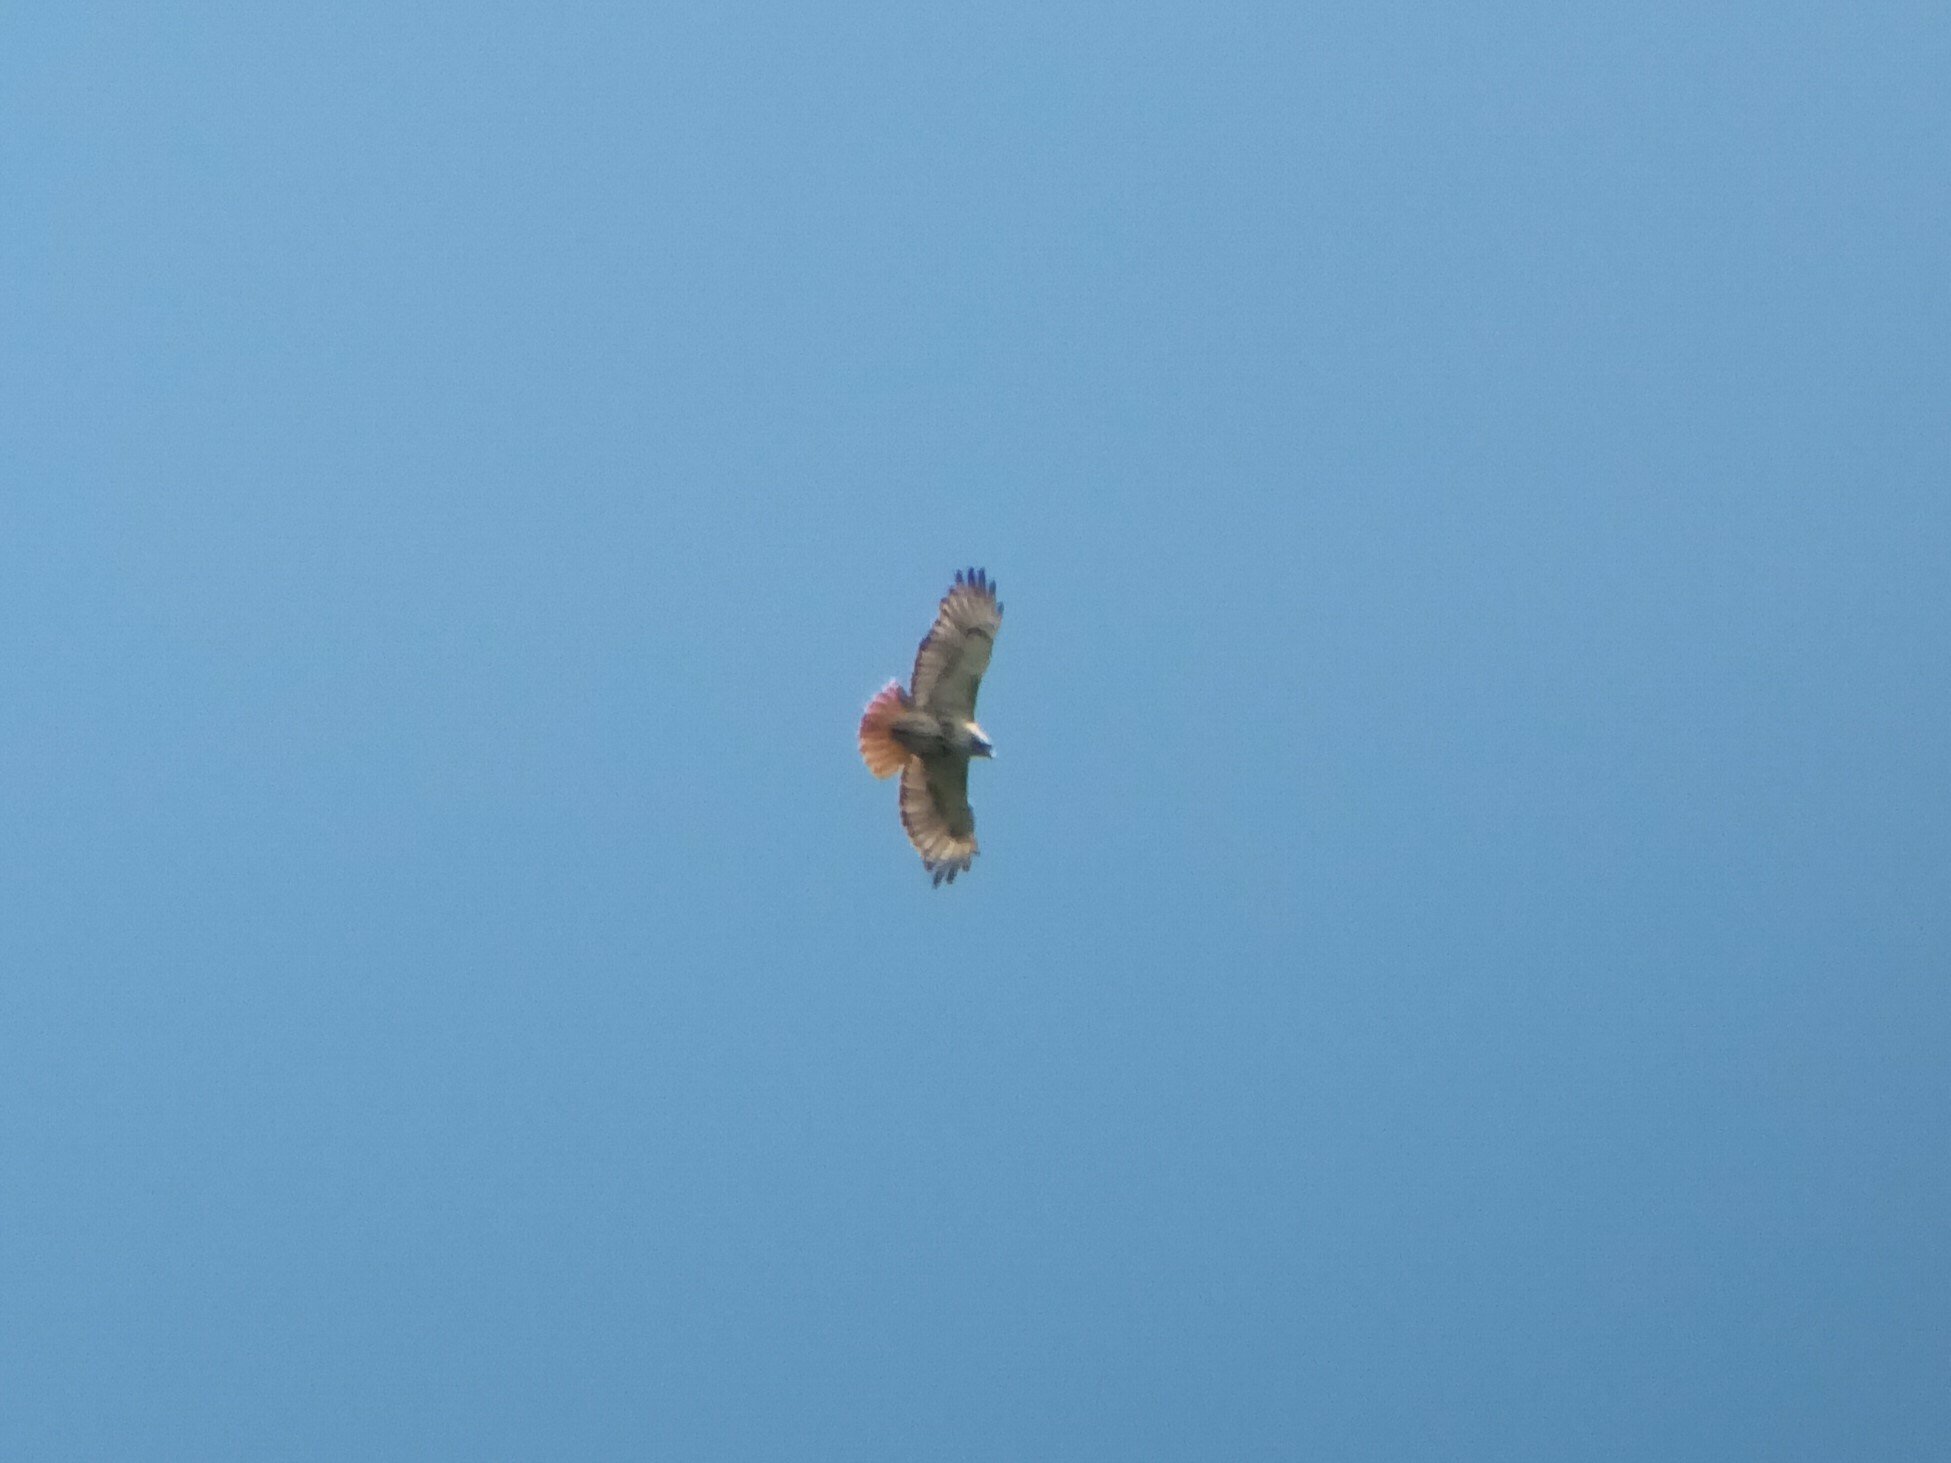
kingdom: Animalia
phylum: Chordata
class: Aves
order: Accipitriformes
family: Accipitridae
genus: Buteo
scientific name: Buteo jamaicensis
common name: Red-tailed hawk
